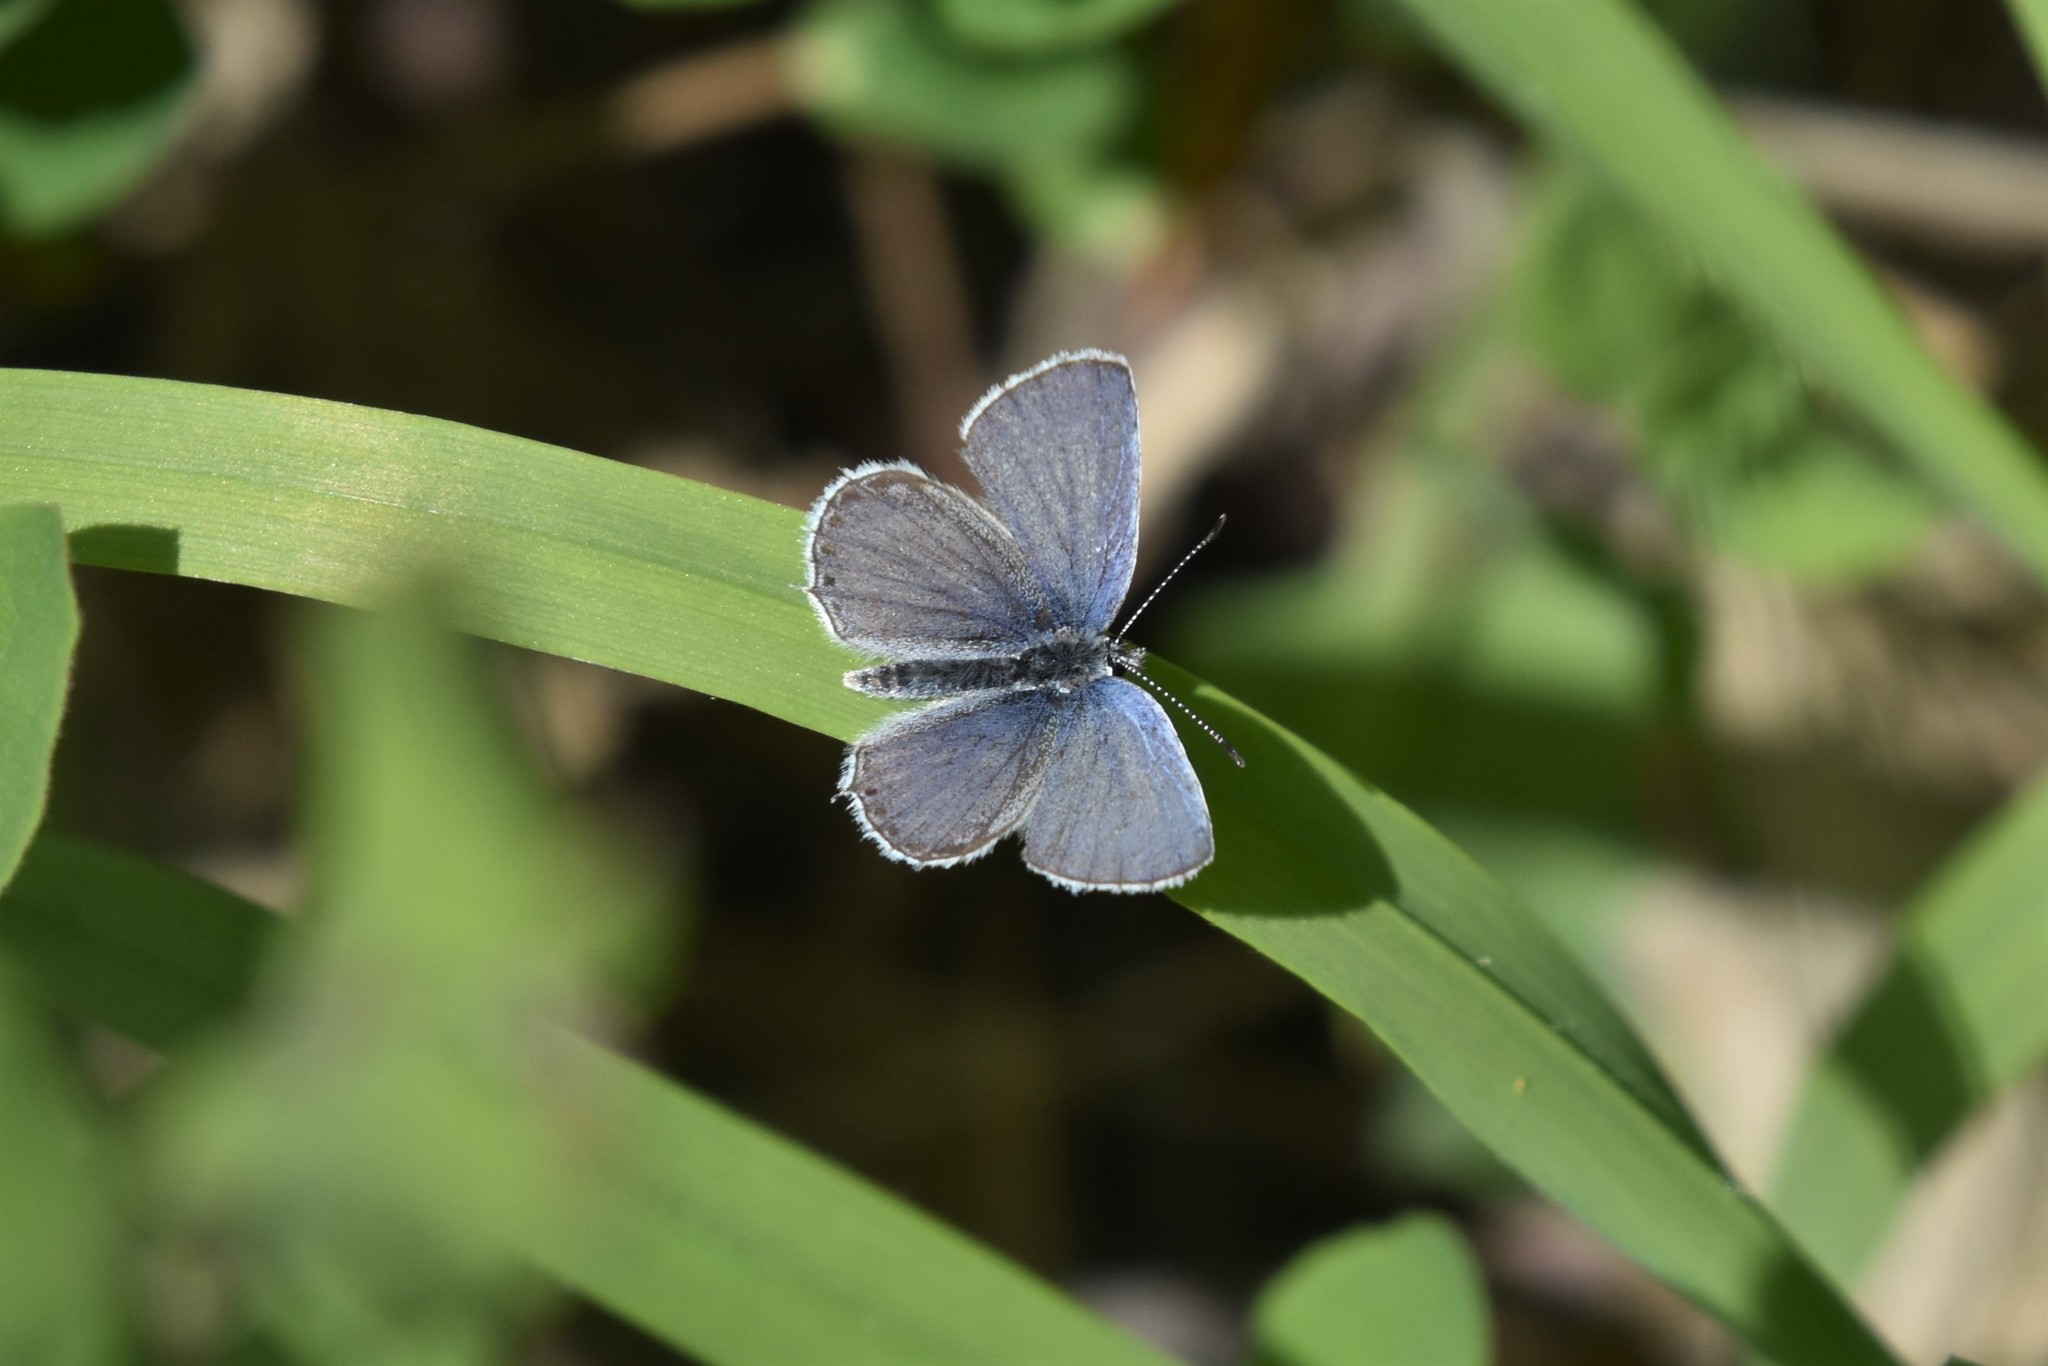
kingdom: Animalia
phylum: Arthropoda
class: Insecta
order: Lepidoptera
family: Lycaenidae
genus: Elkalyce
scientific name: Elkalyce amyntula
